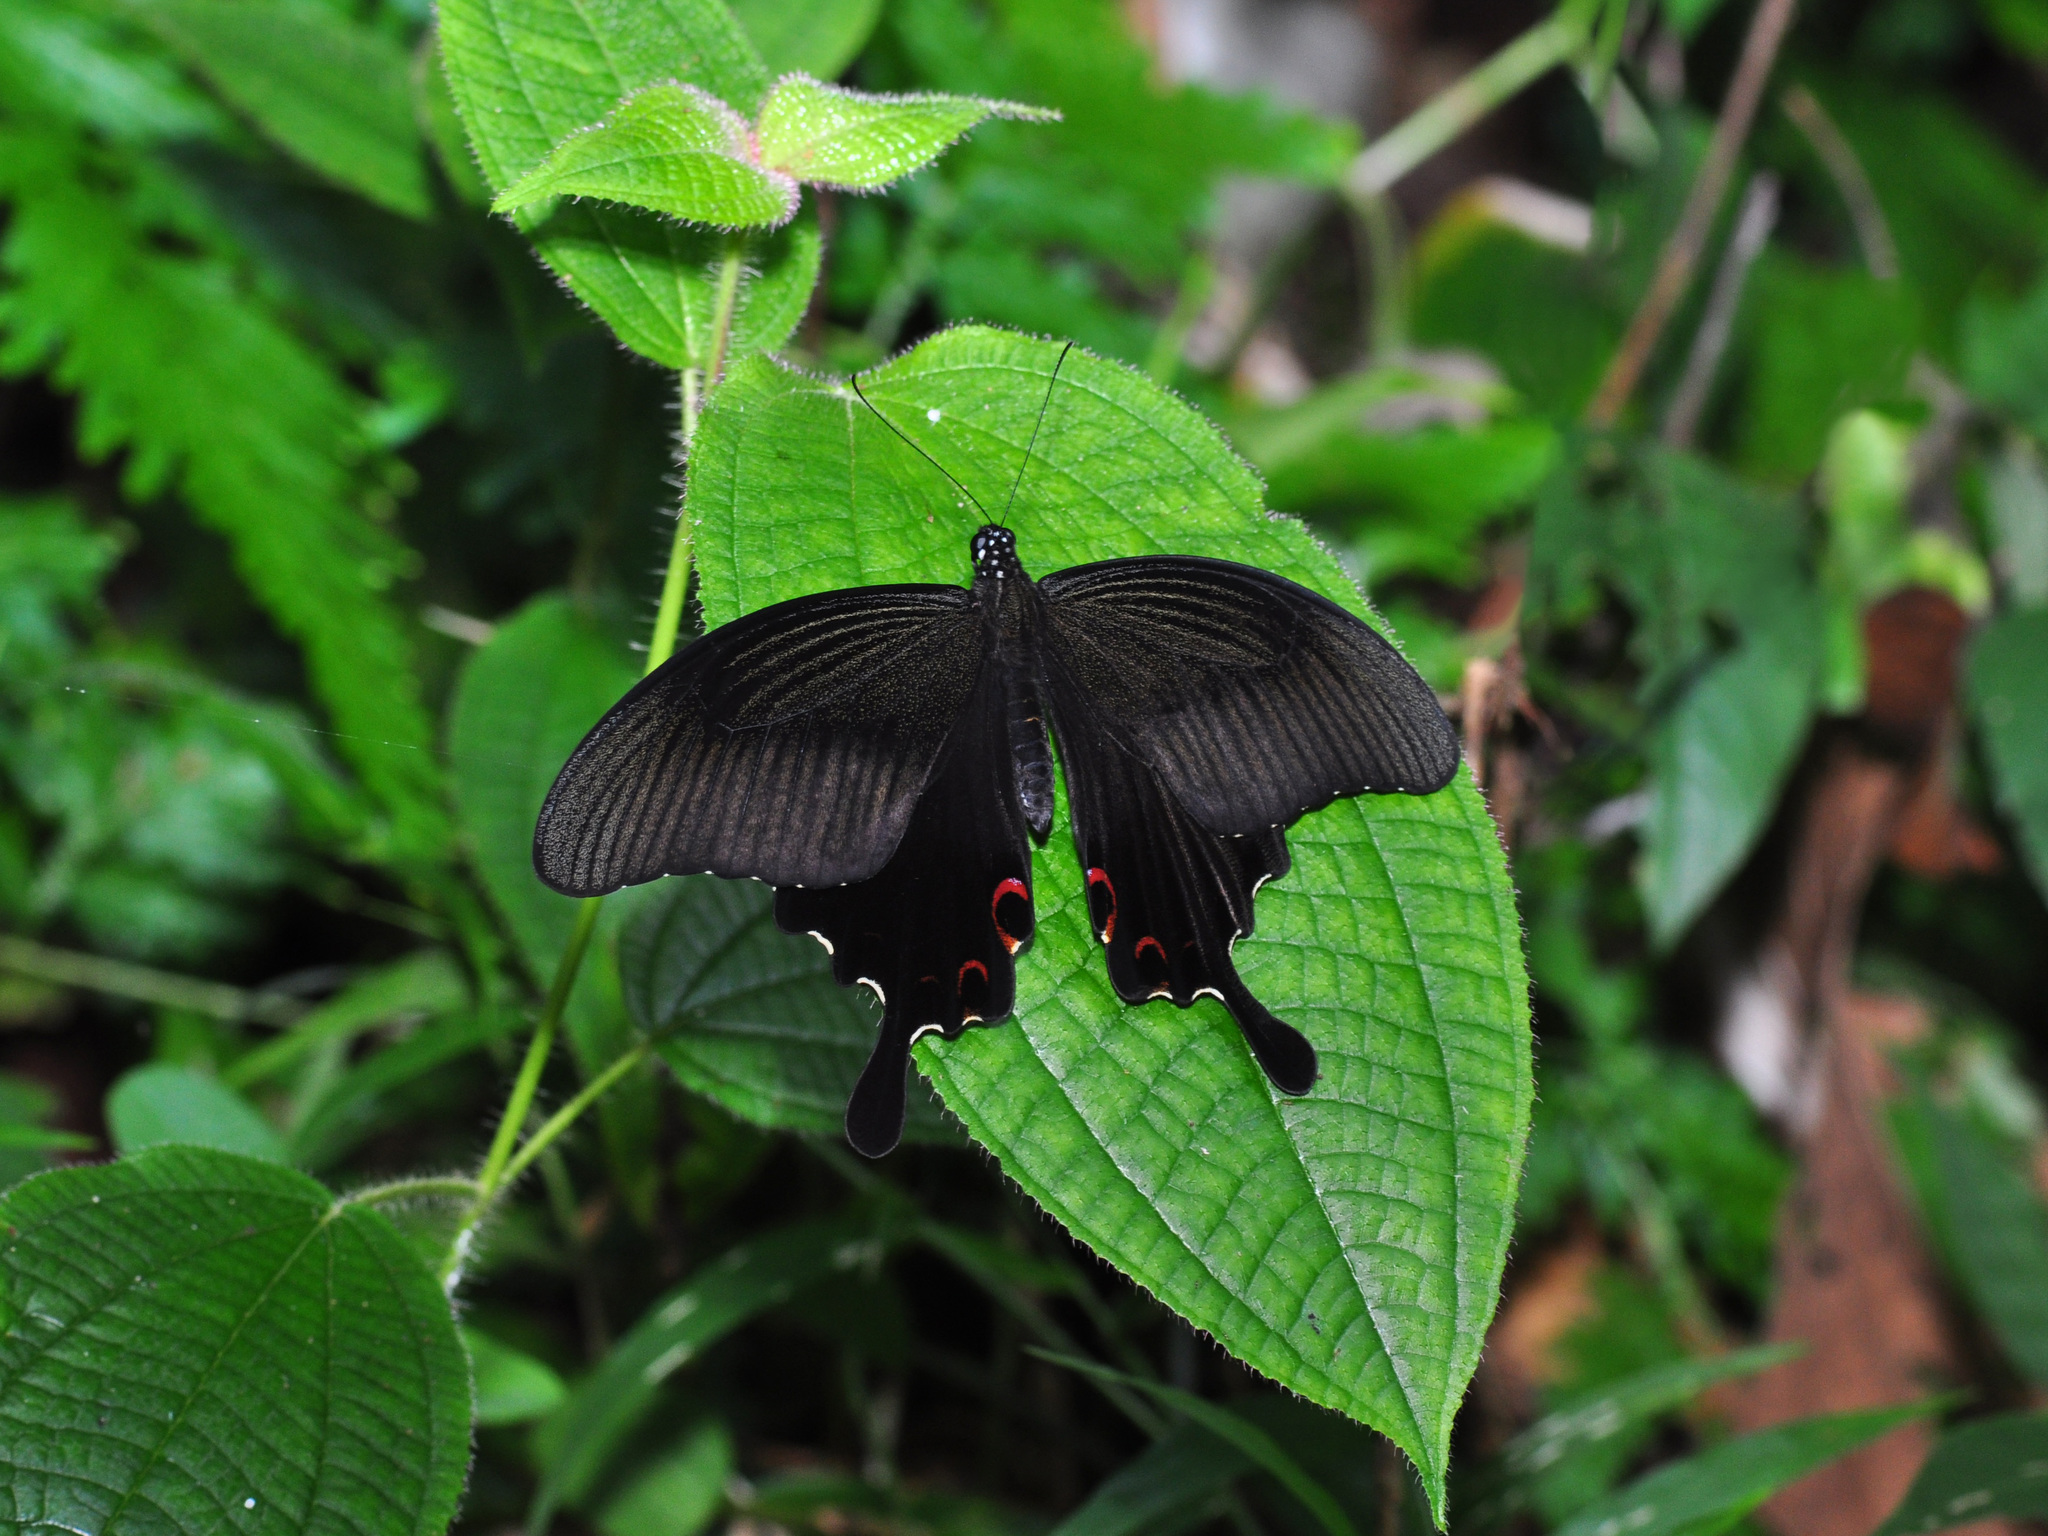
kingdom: Animalia
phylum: Arthropoda
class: Insecta
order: Lepidoptera
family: Papilionidae
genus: Papilio
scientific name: Papilio helenus
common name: Red helen
